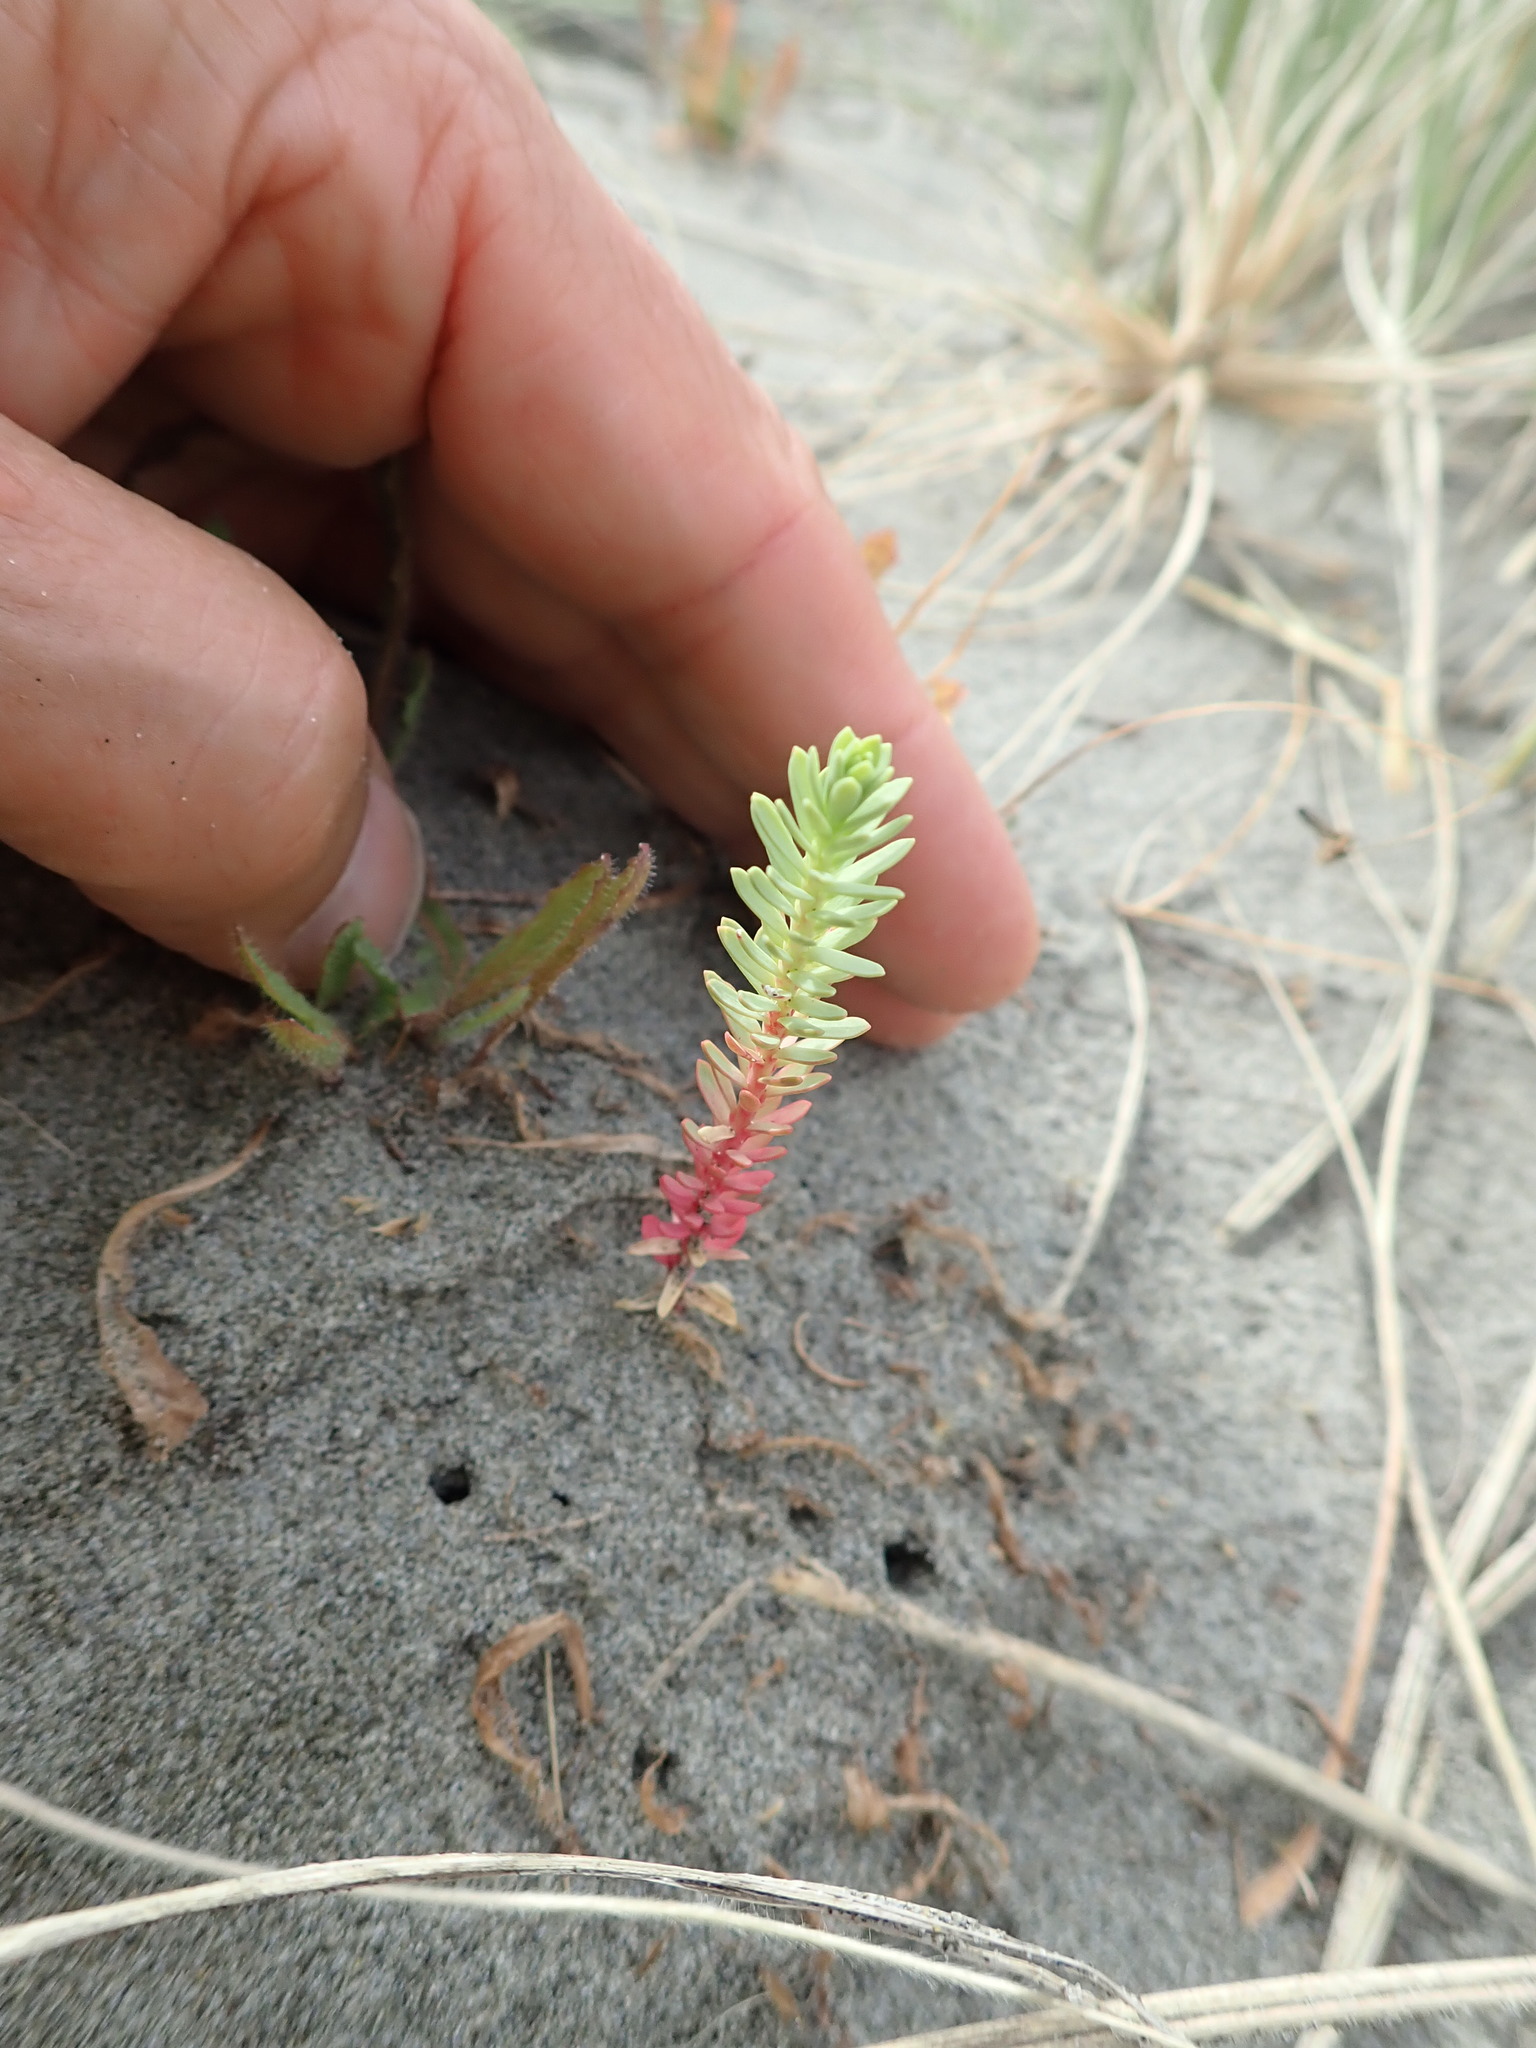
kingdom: Plantae
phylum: Tracheophyta
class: Magnoliopsida
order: Malpighiales
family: Euphorbiaceae
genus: Euphorbia
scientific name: Euphorbia paralias
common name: Sea spurge
